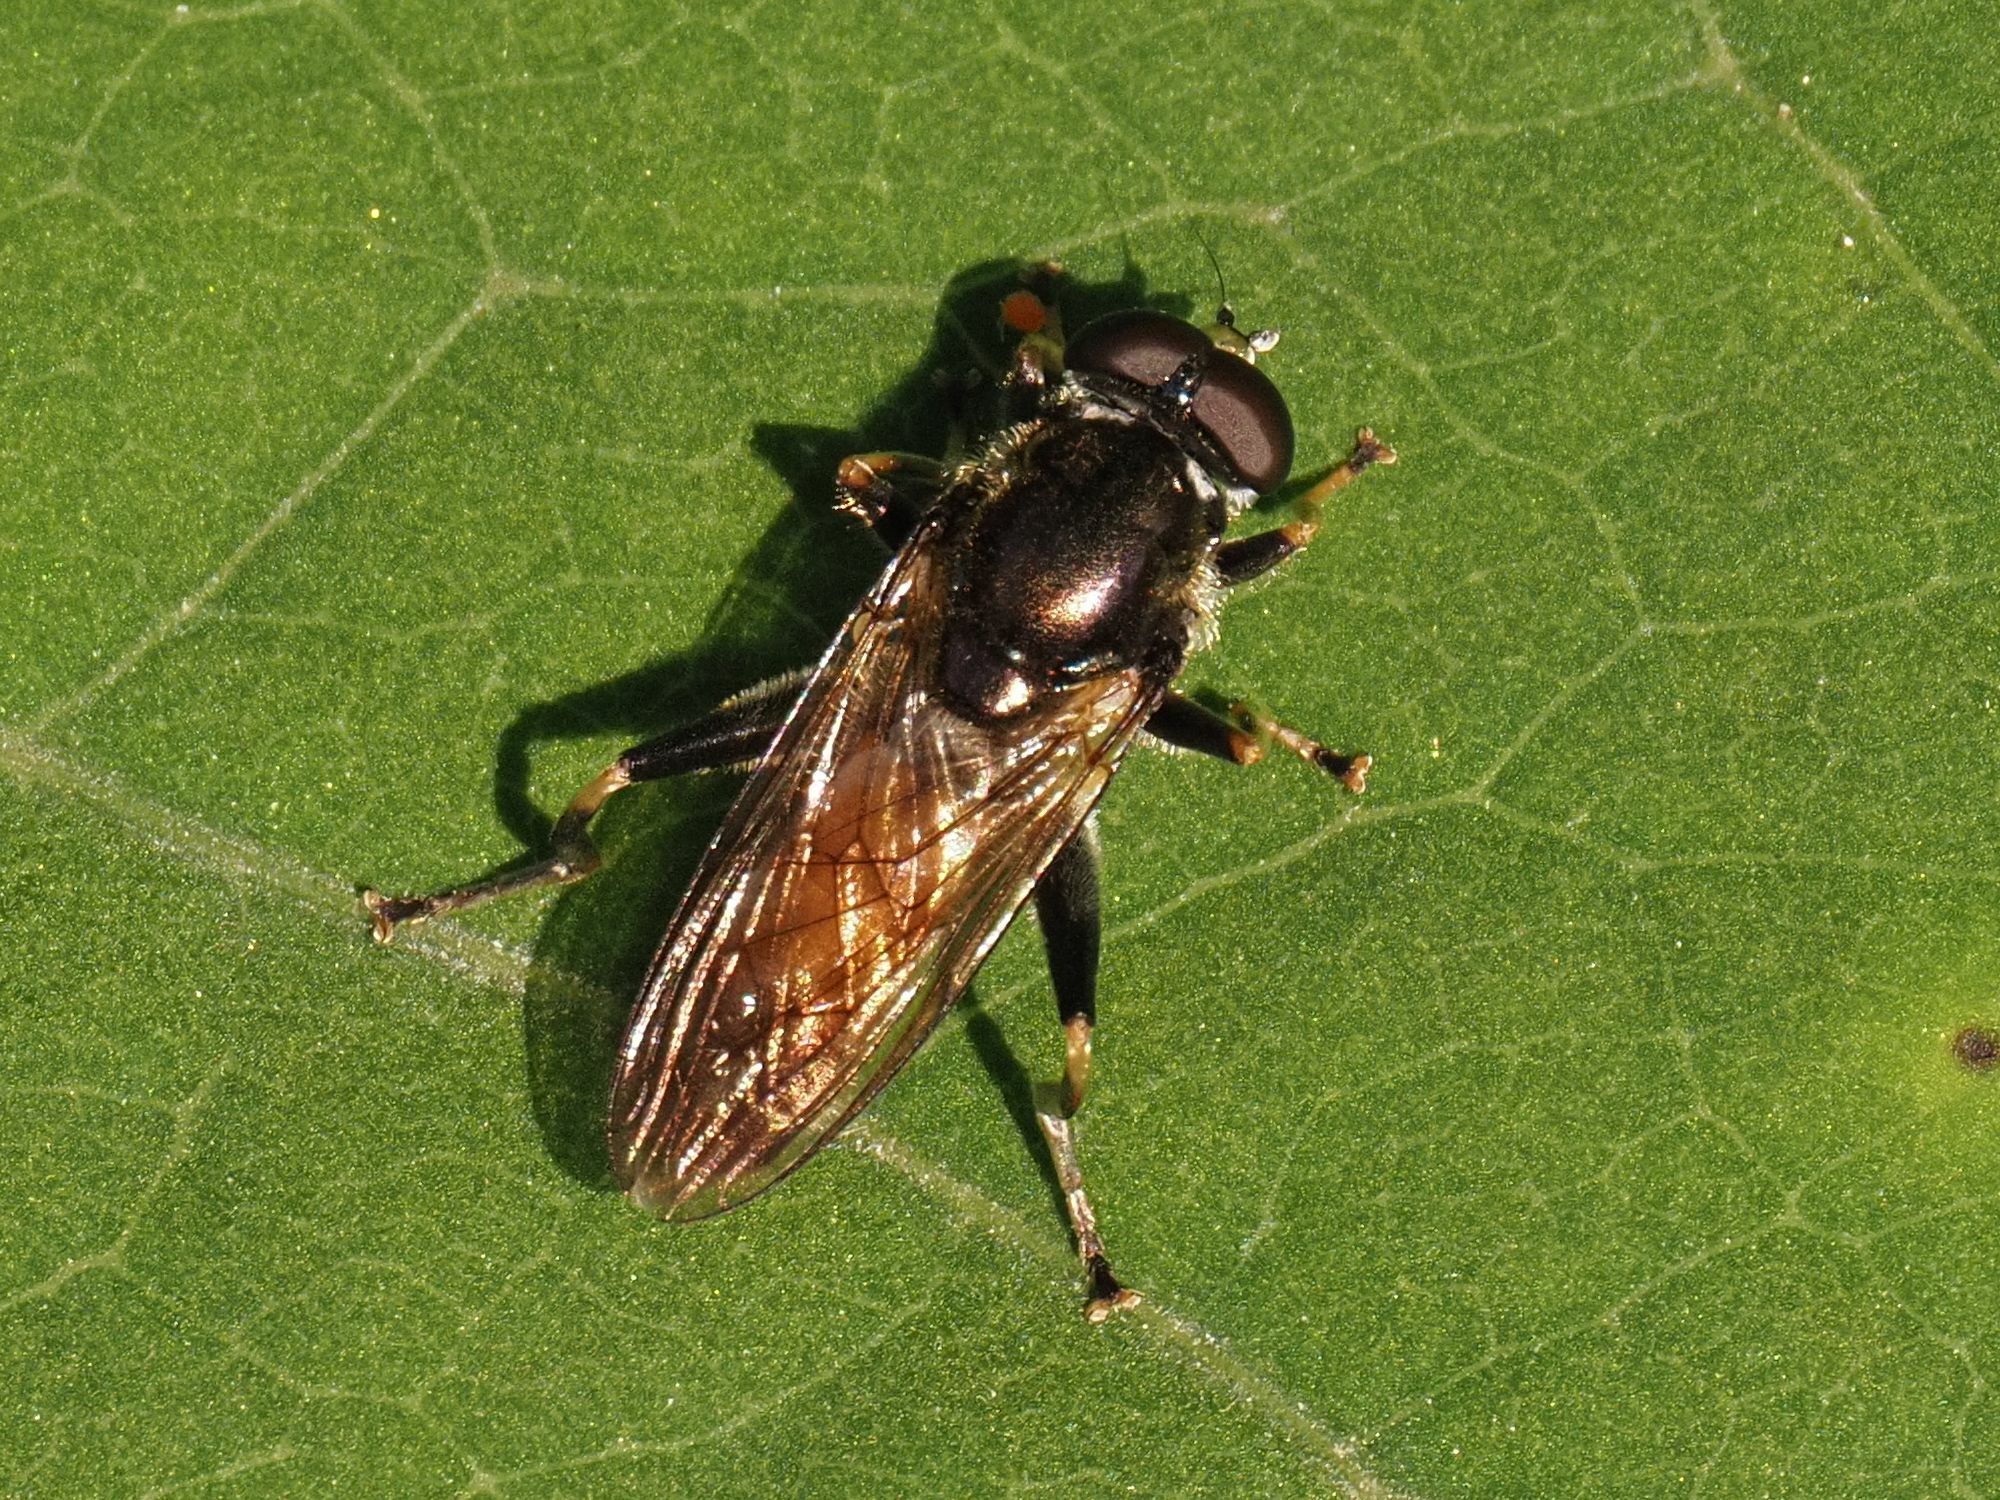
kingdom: Animalia
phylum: Arthropoda
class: Insecta
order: Diptera
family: Syrphidae
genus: Xylota
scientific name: Xylota segnis
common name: Brown-toed forest fly
